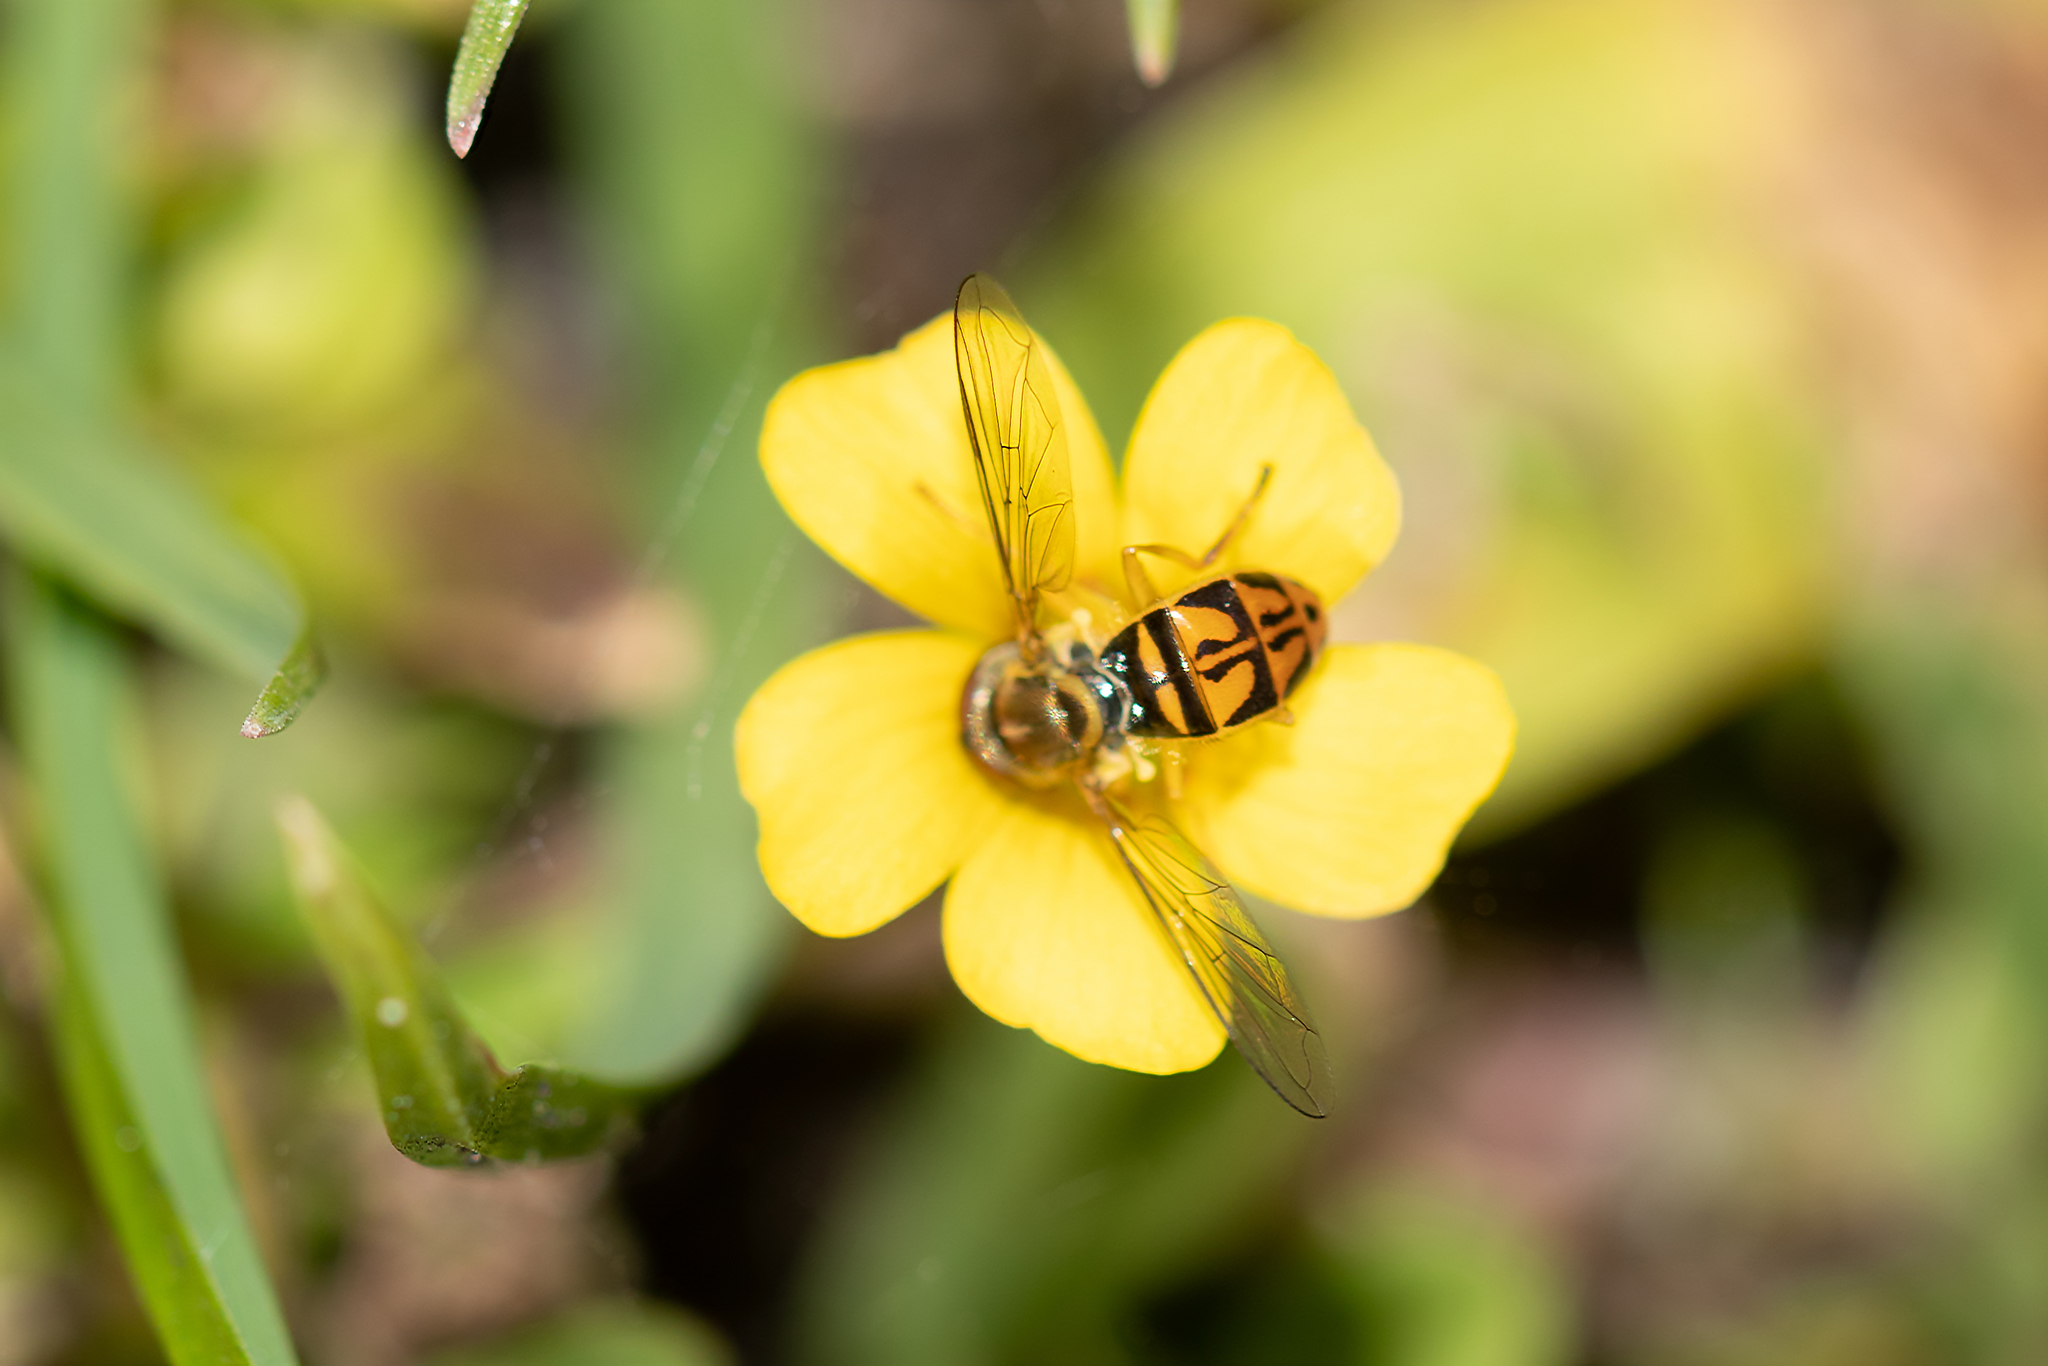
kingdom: Animalia
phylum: Arthropoda
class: Insecta
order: Diptera
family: Syrphidae
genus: Toxomerus
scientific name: Toxomerus marginatus
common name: Syrphid fly
